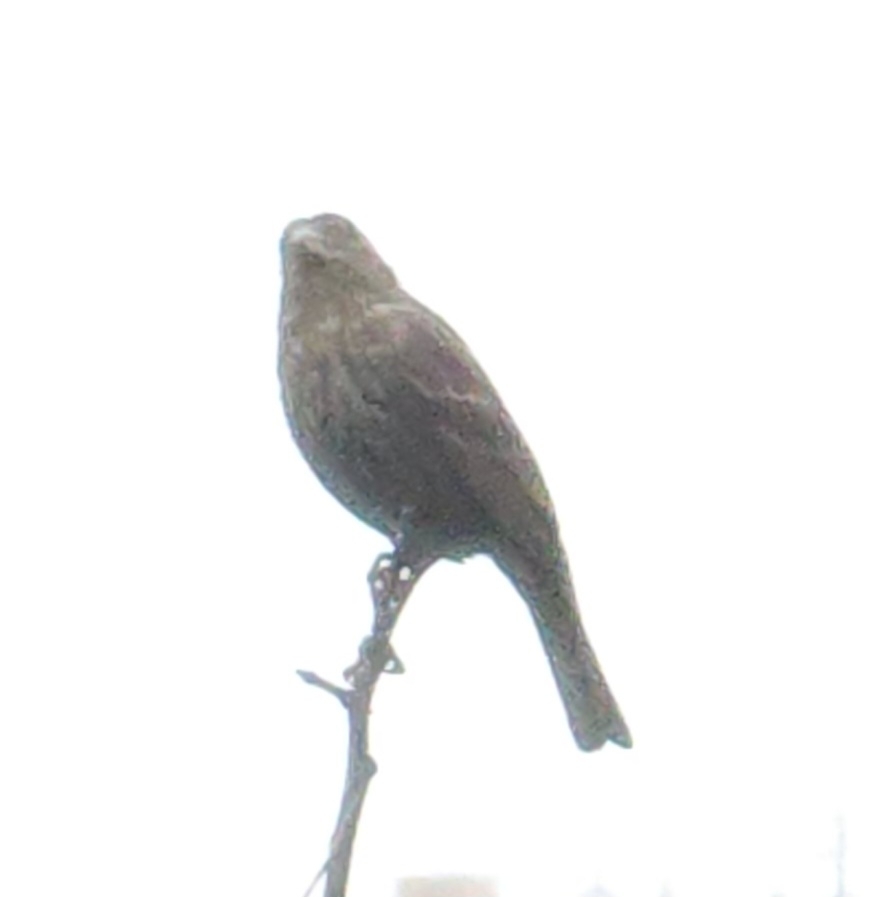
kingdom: Animalia
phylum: Chordata
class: Aves
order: Passeriformes
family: Fringillidae
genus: Haemorhous
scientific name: Haemorhous mexicanus
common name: House finch
